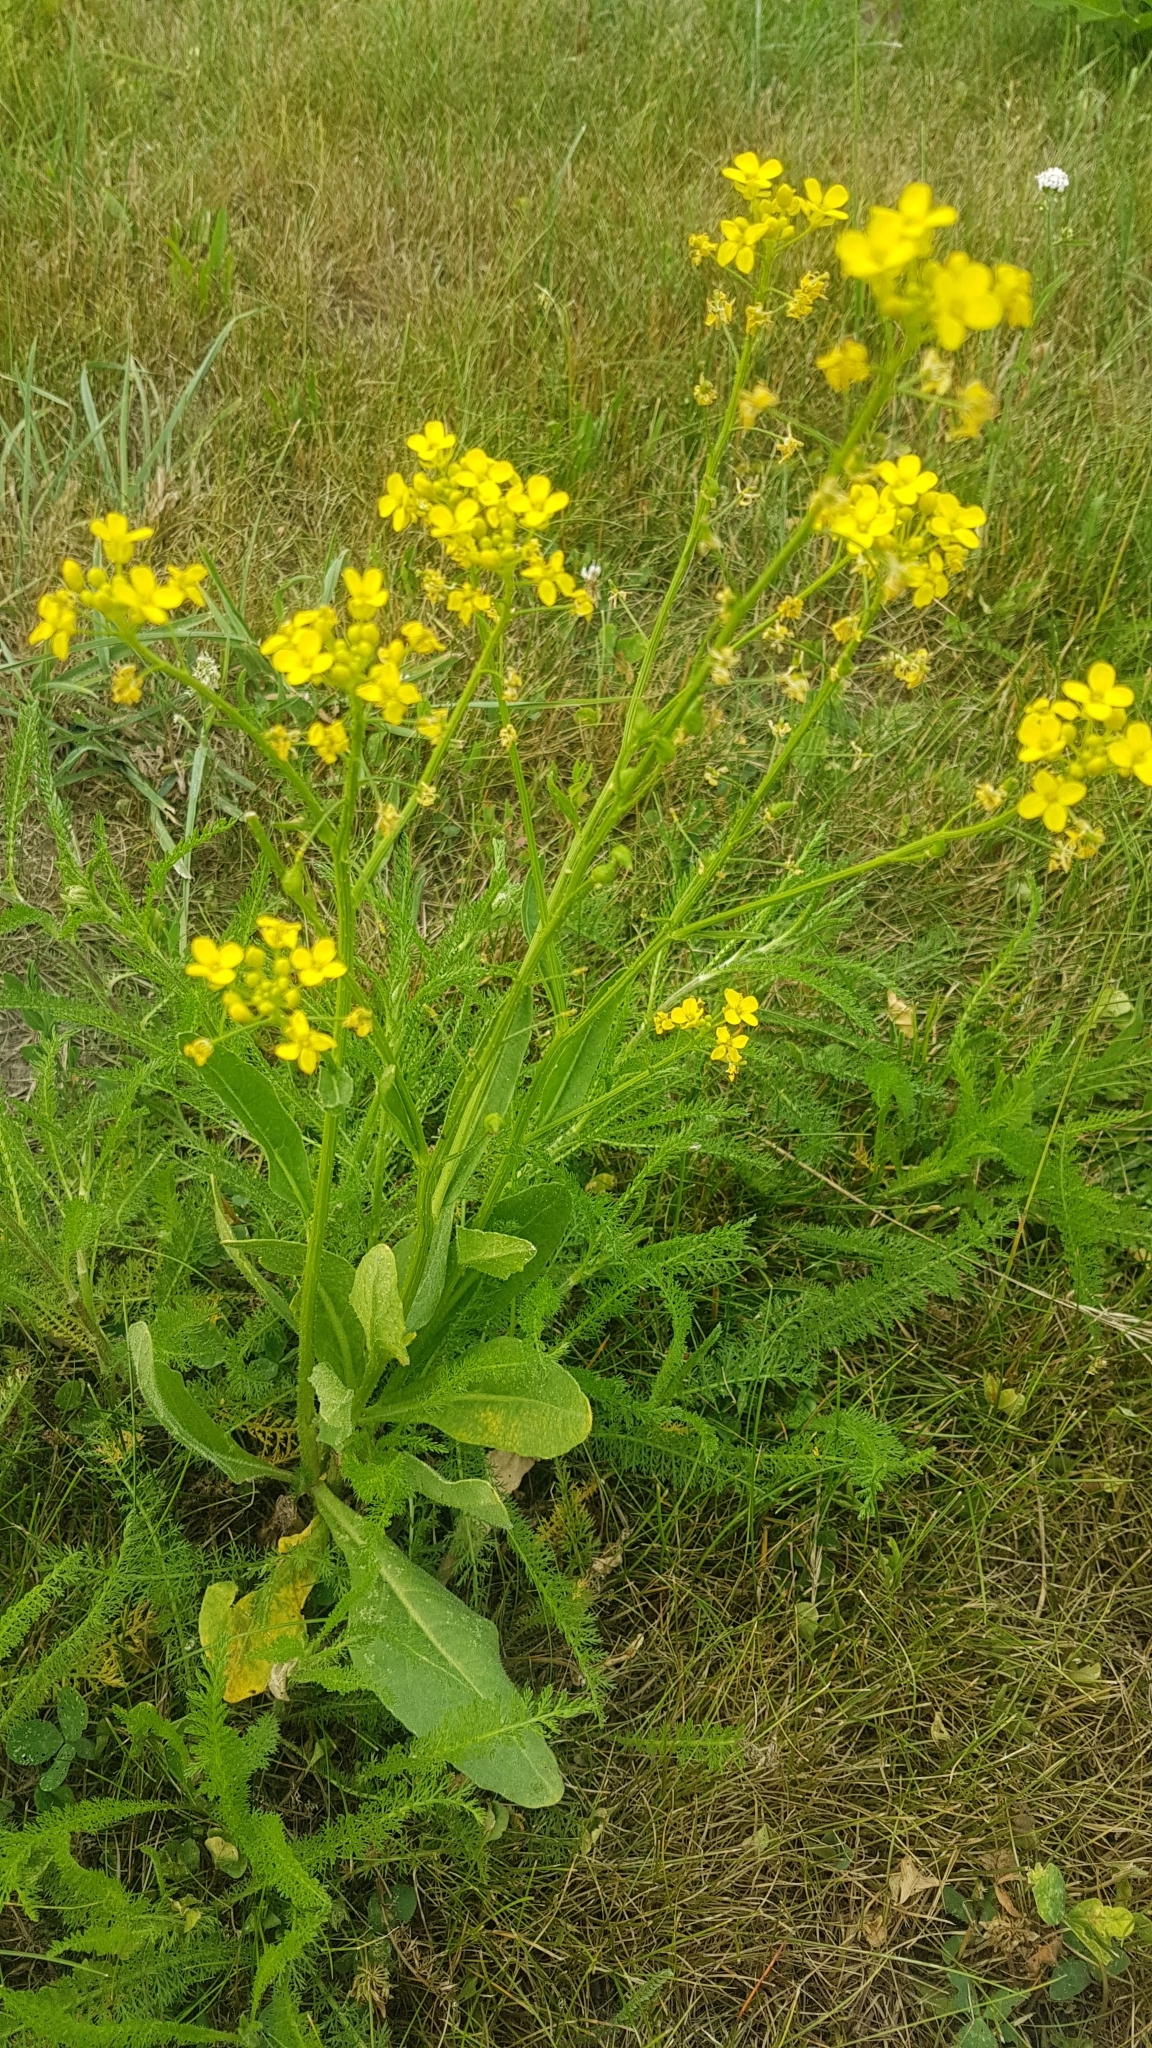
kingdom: Plantae
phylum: Tracheophyta
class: Magnoliopsida
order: Brassicales
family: Brassicaceae
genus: Bunias
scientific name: Bunias orientalis
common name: Warty-cabbage
